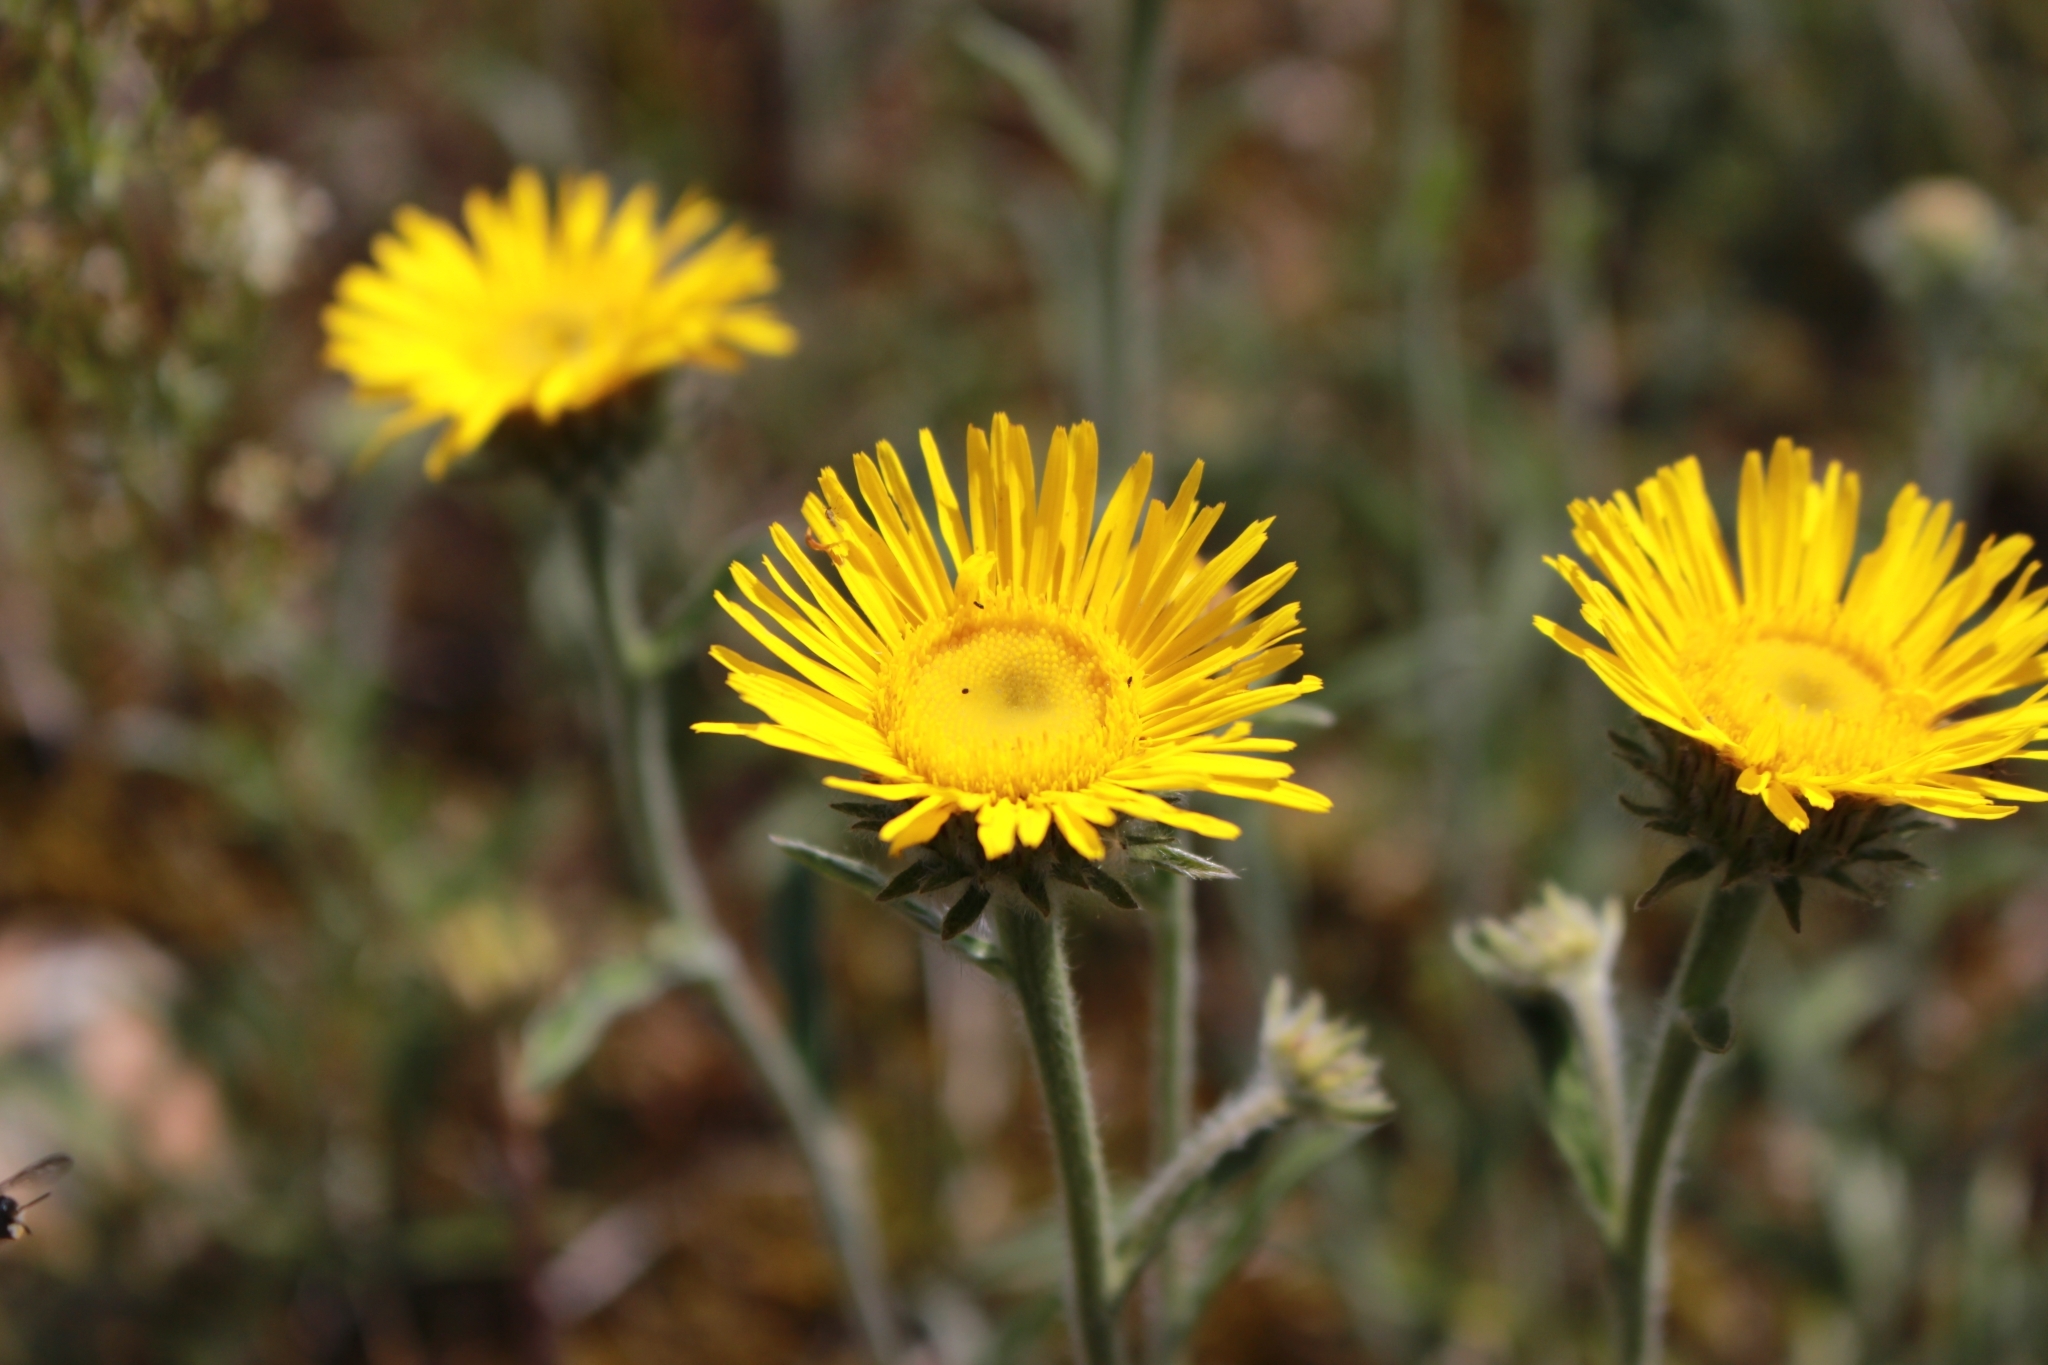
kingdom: Plantae
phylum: Tracheophyta
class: Magnoliopsida
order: Asterales
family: Asteraceae
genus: Pentanema
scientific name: Pentanema montanum
